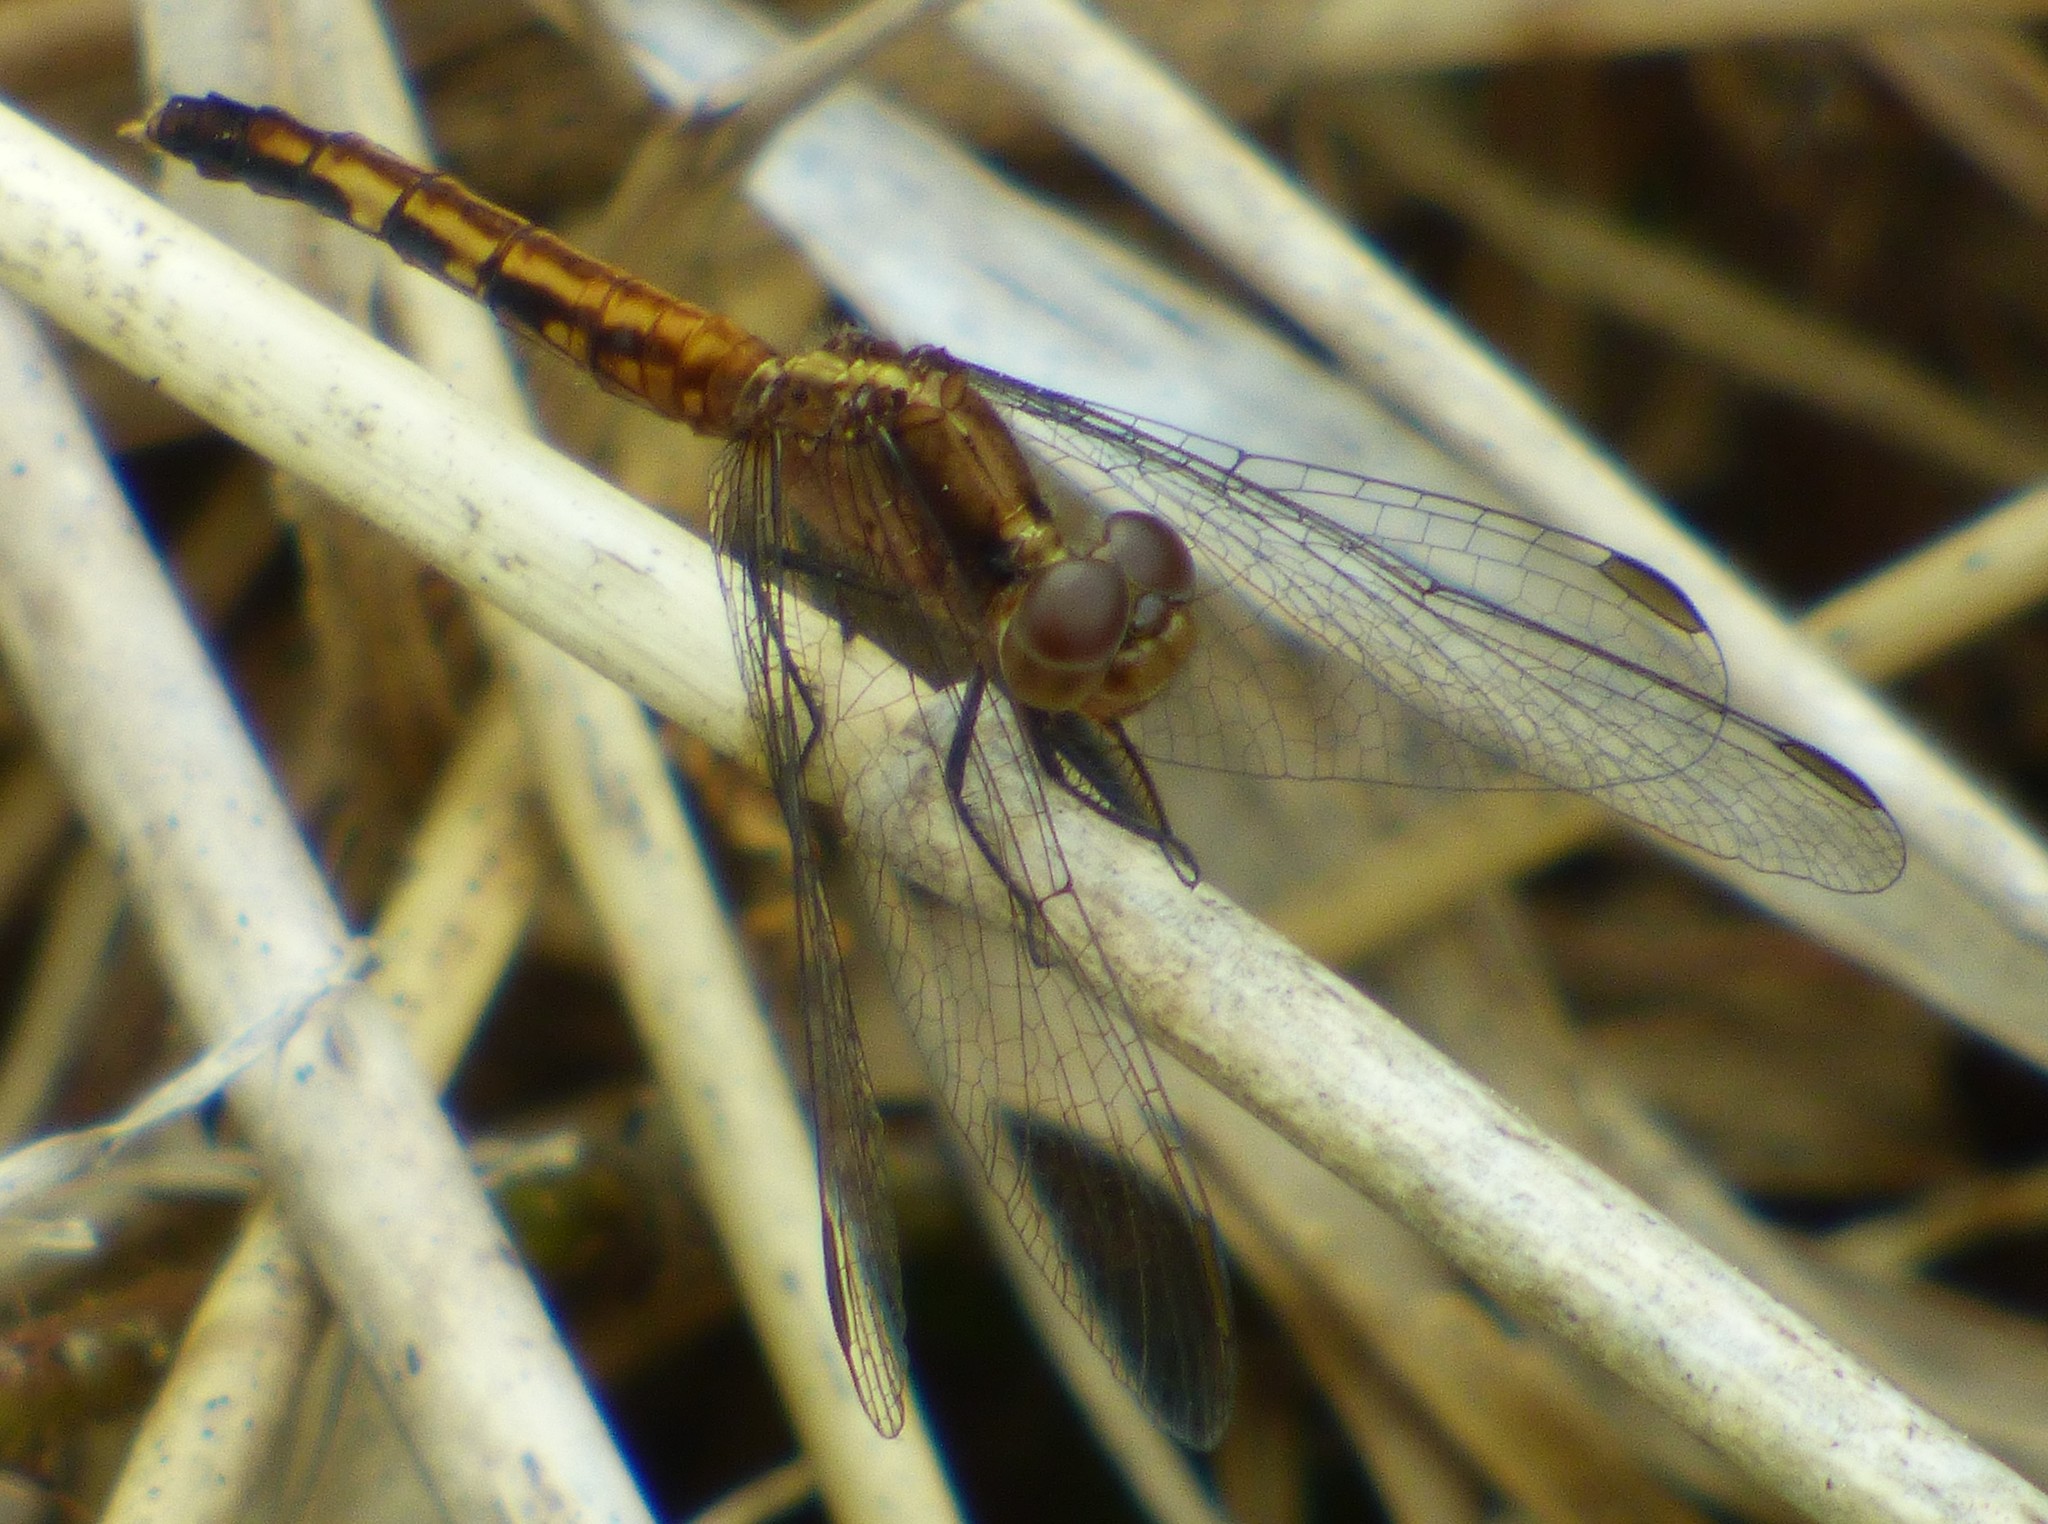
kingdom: Animalia
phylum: Arthropoda
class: Insecta
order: Odonata
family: Libellulidae
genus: Erythrodiplax
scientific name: Erythrodiplax minuscula
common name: Little blue dragonlet
